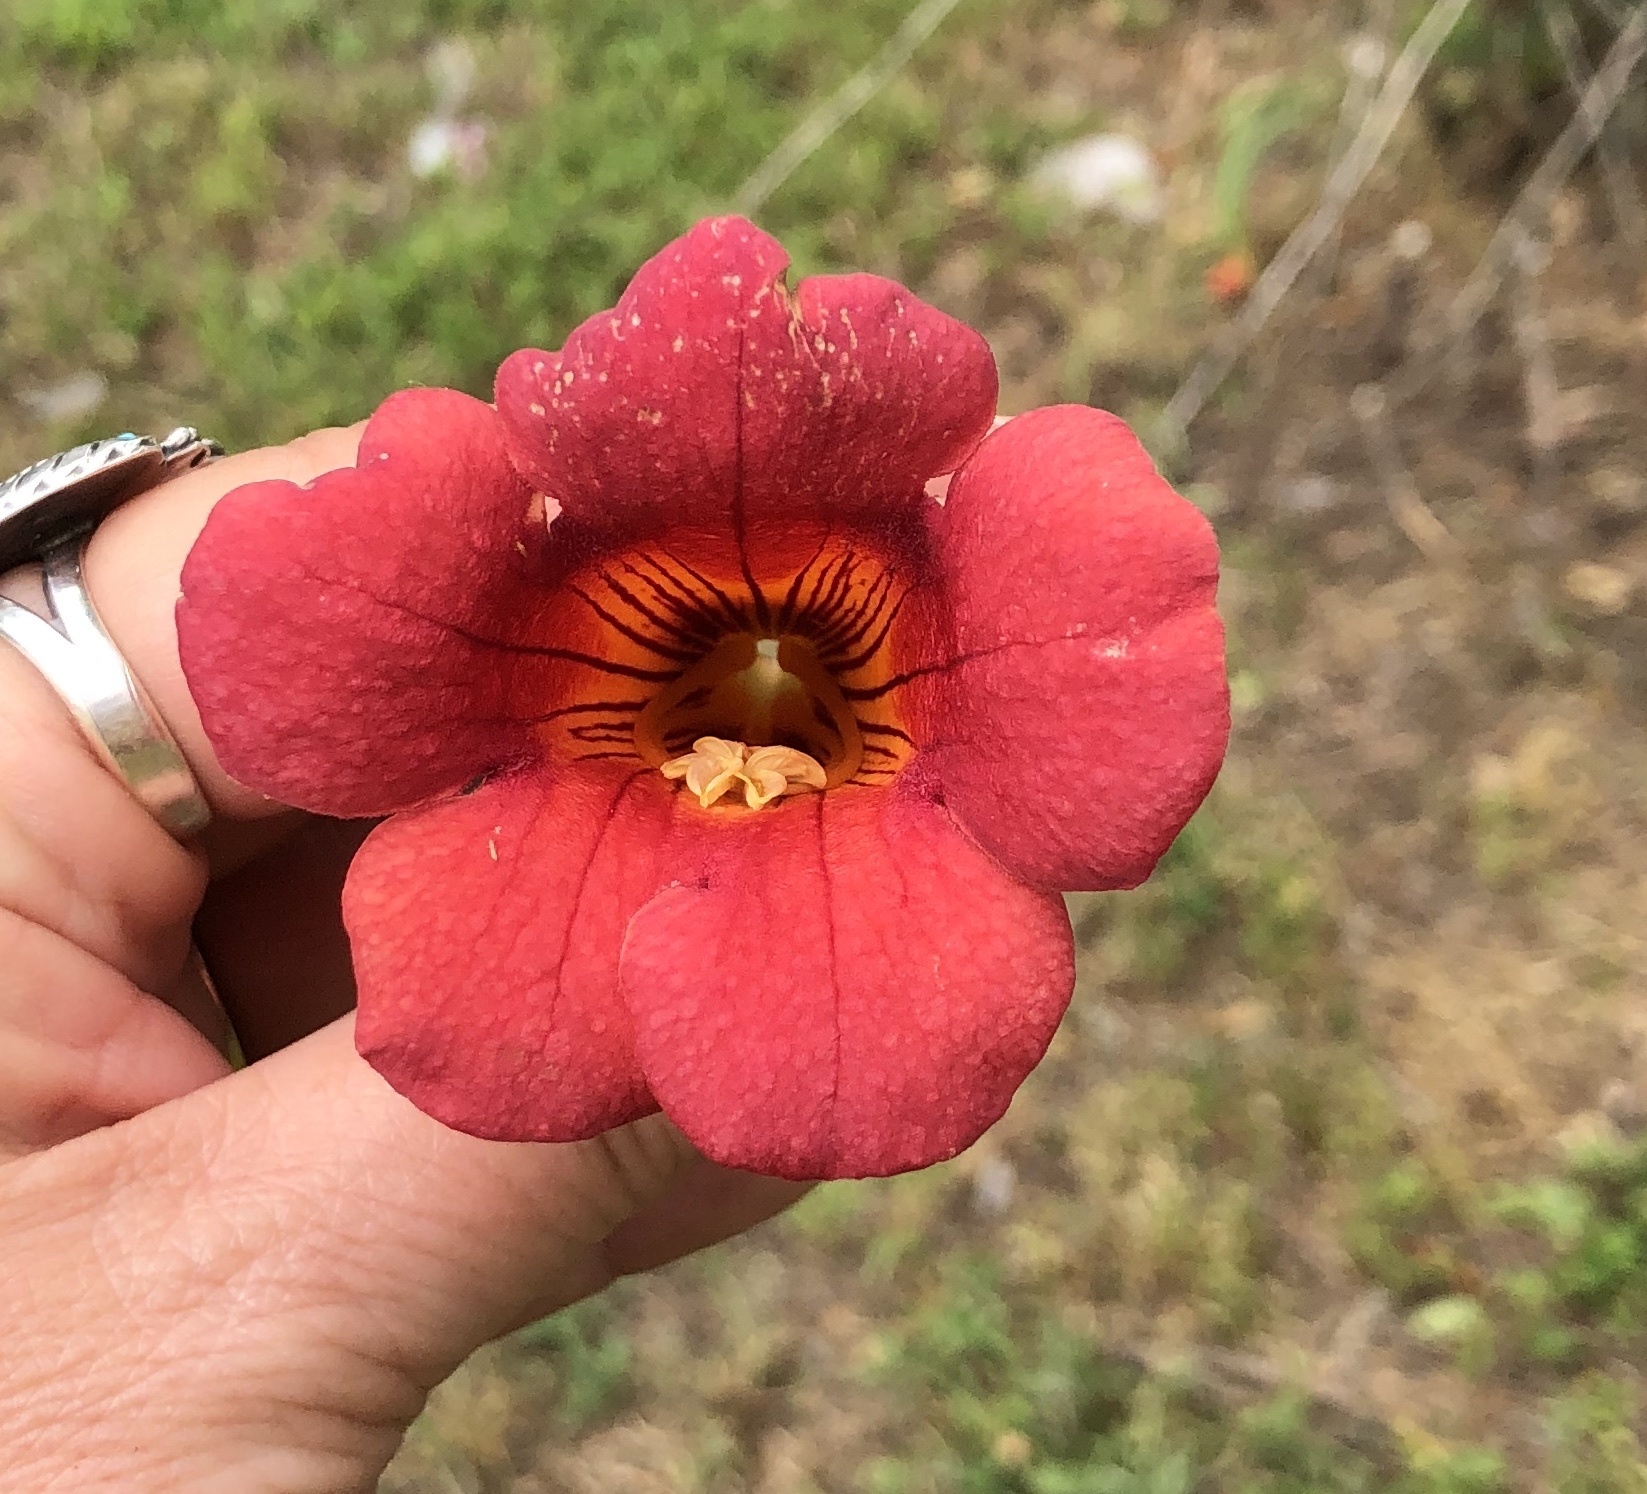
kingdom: Plantae
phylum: Tracheophyta
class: Magnoliopsida
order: Lamiales
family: Bignoniaceae
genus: Campsis
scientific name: Campsis radicans
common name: Trumpet-creeper
